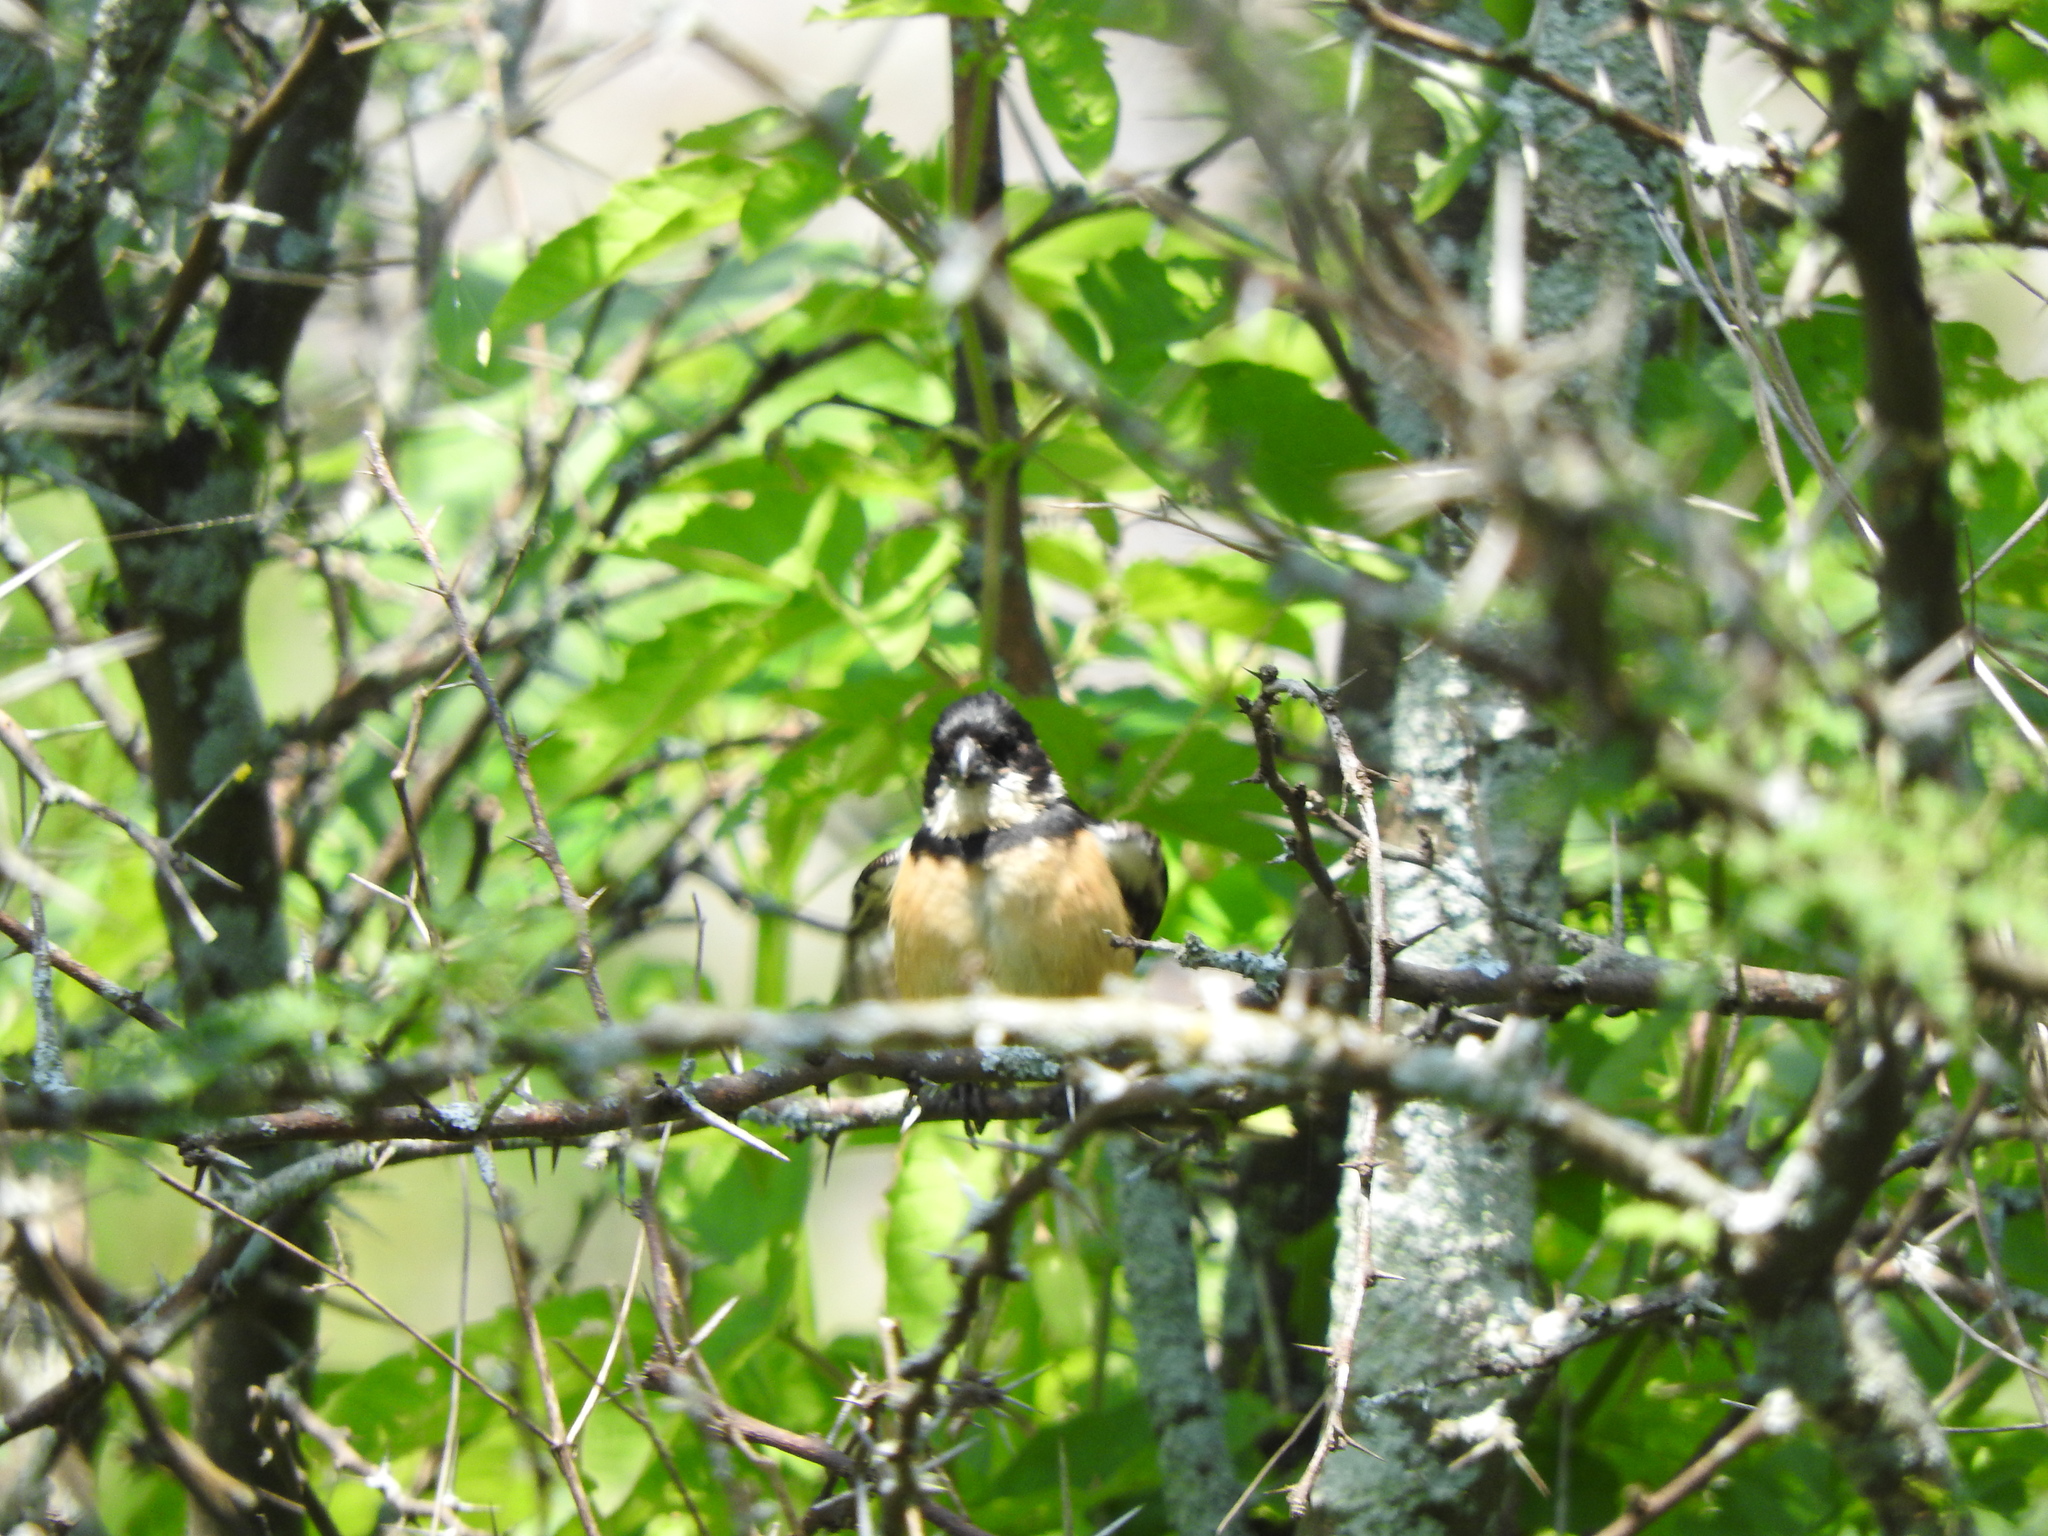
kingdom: Animalia
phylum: Chordata
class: Aves
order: Passeriformes
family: Thraupidae
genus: Sporophila
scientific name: Sporophila torqueola
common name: White-collared seedeater
